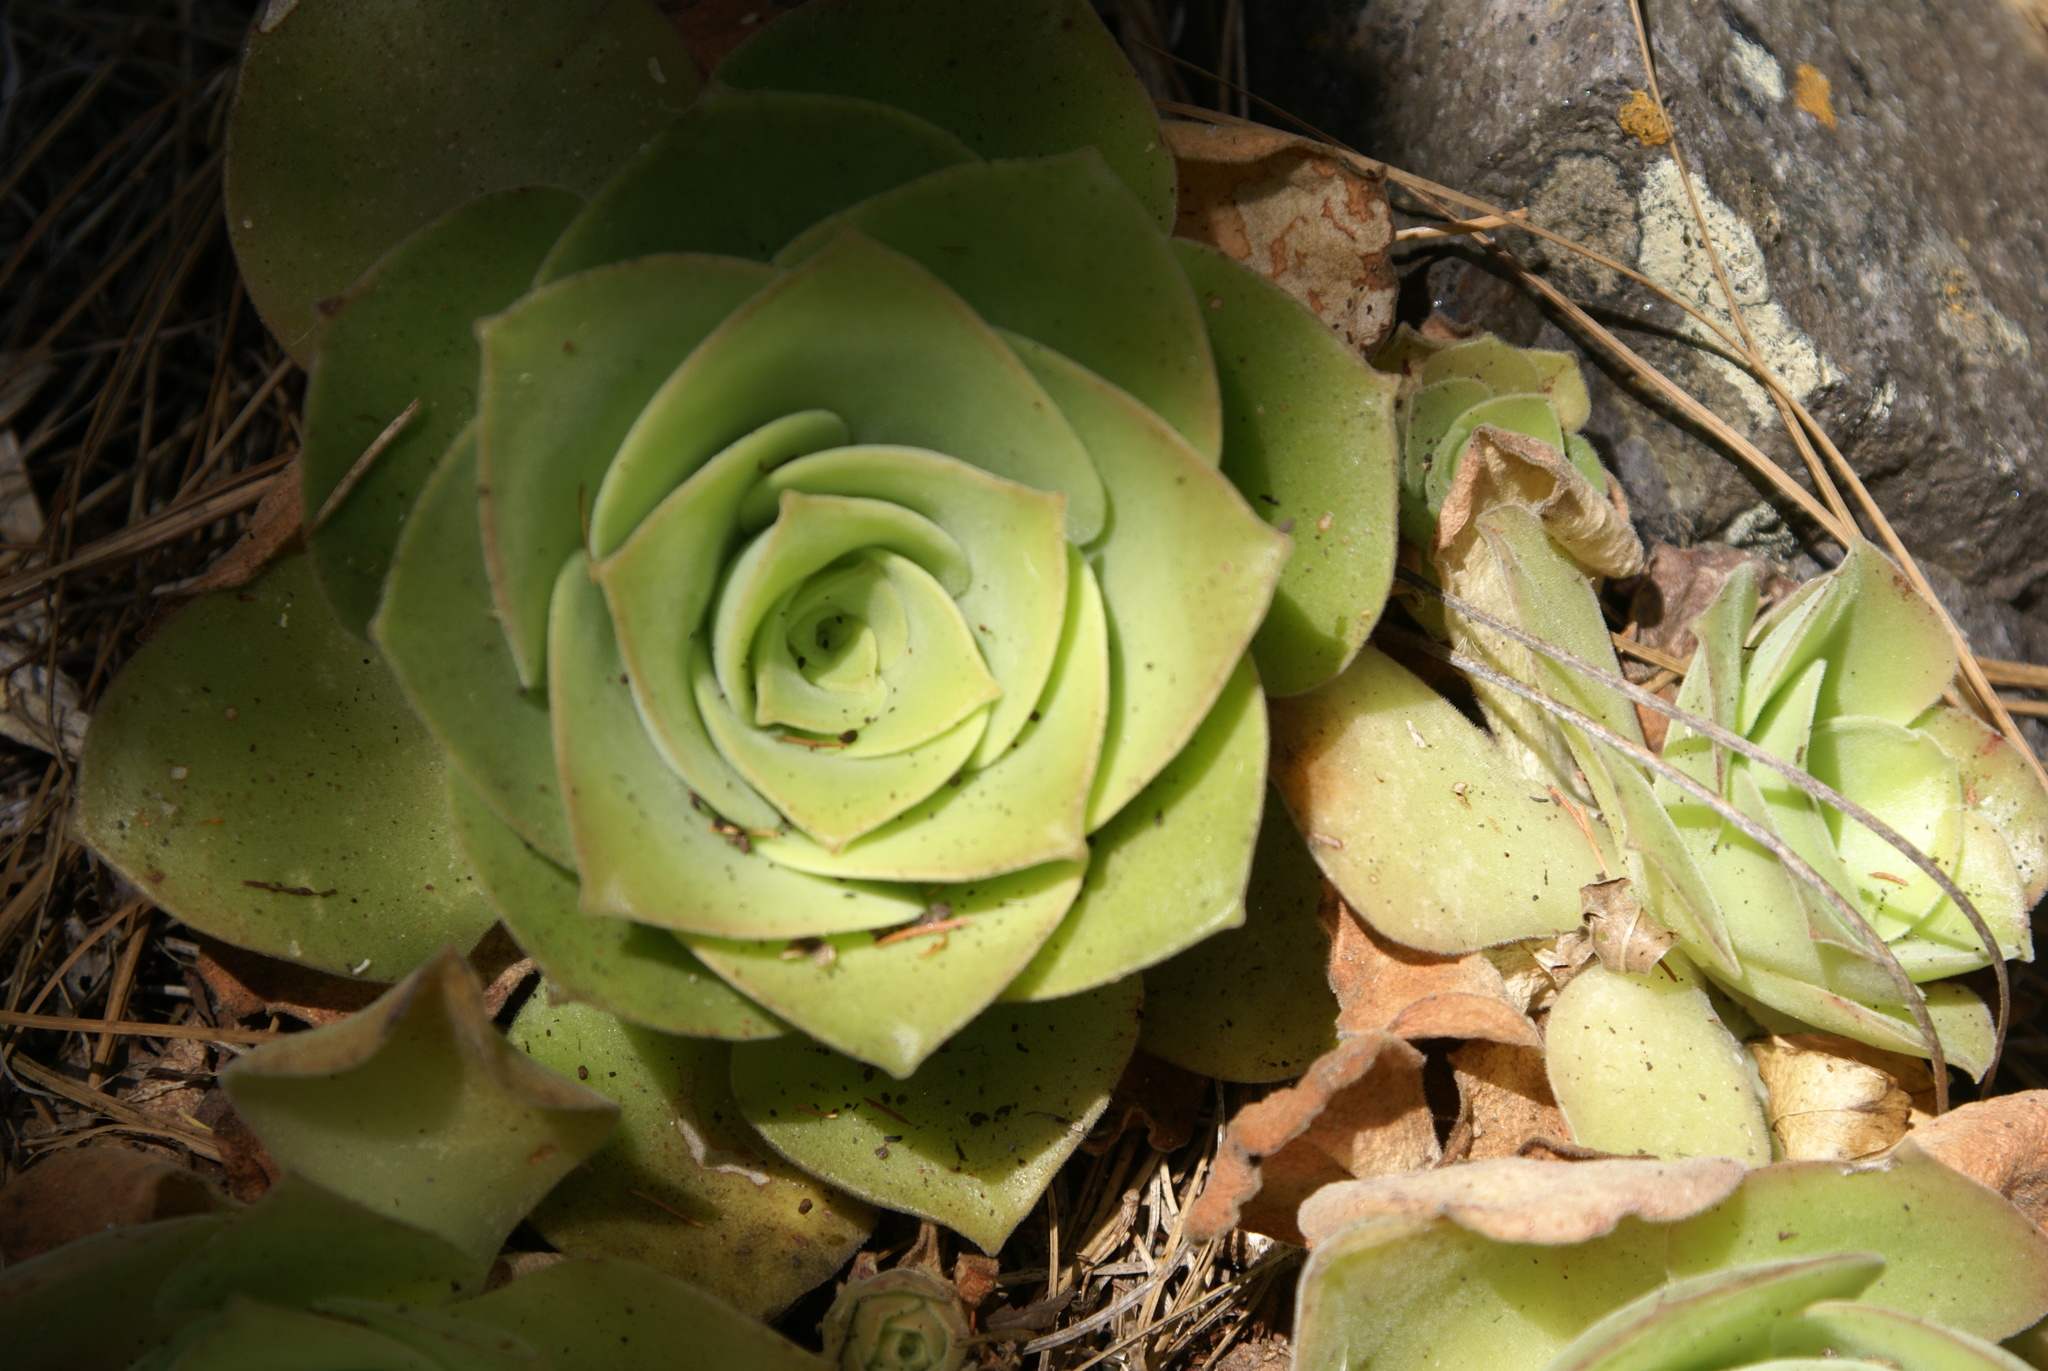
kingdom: Plantae
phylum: Tracheophyta
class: Magnoliopsida
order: Saxifragales
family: Crassulaceae
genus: Aeonium
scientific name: Aeonium canariense
